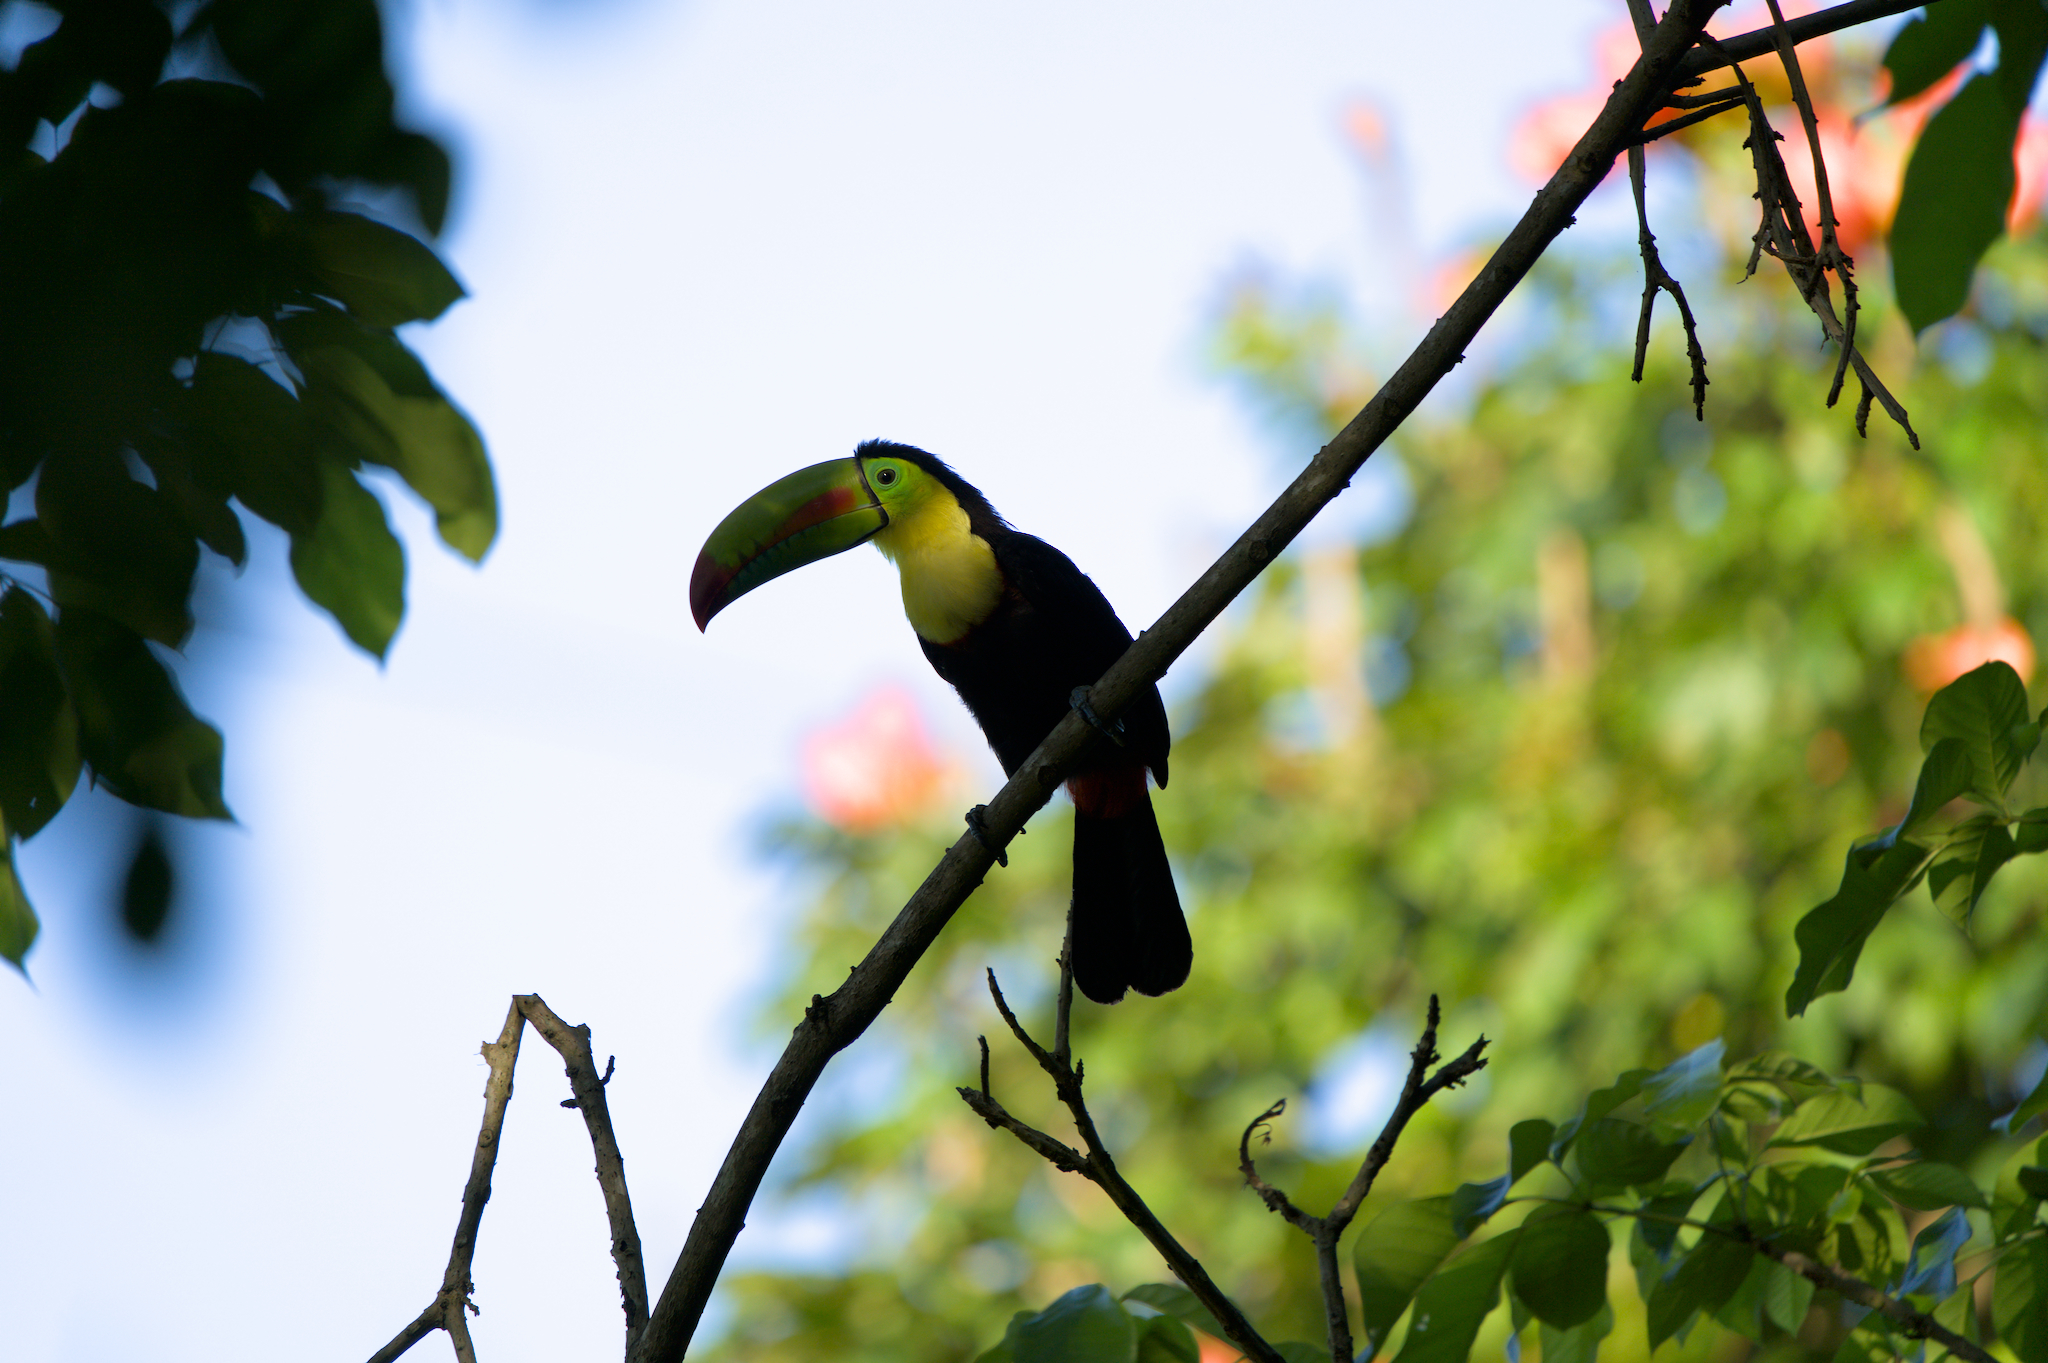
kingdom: Animalia
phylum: Chordata
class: Aves
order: Piciformes
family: Ramphastidae
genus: Ramphastos
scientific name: Ramphastos sulfuratus
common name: Keel-billed toucan
